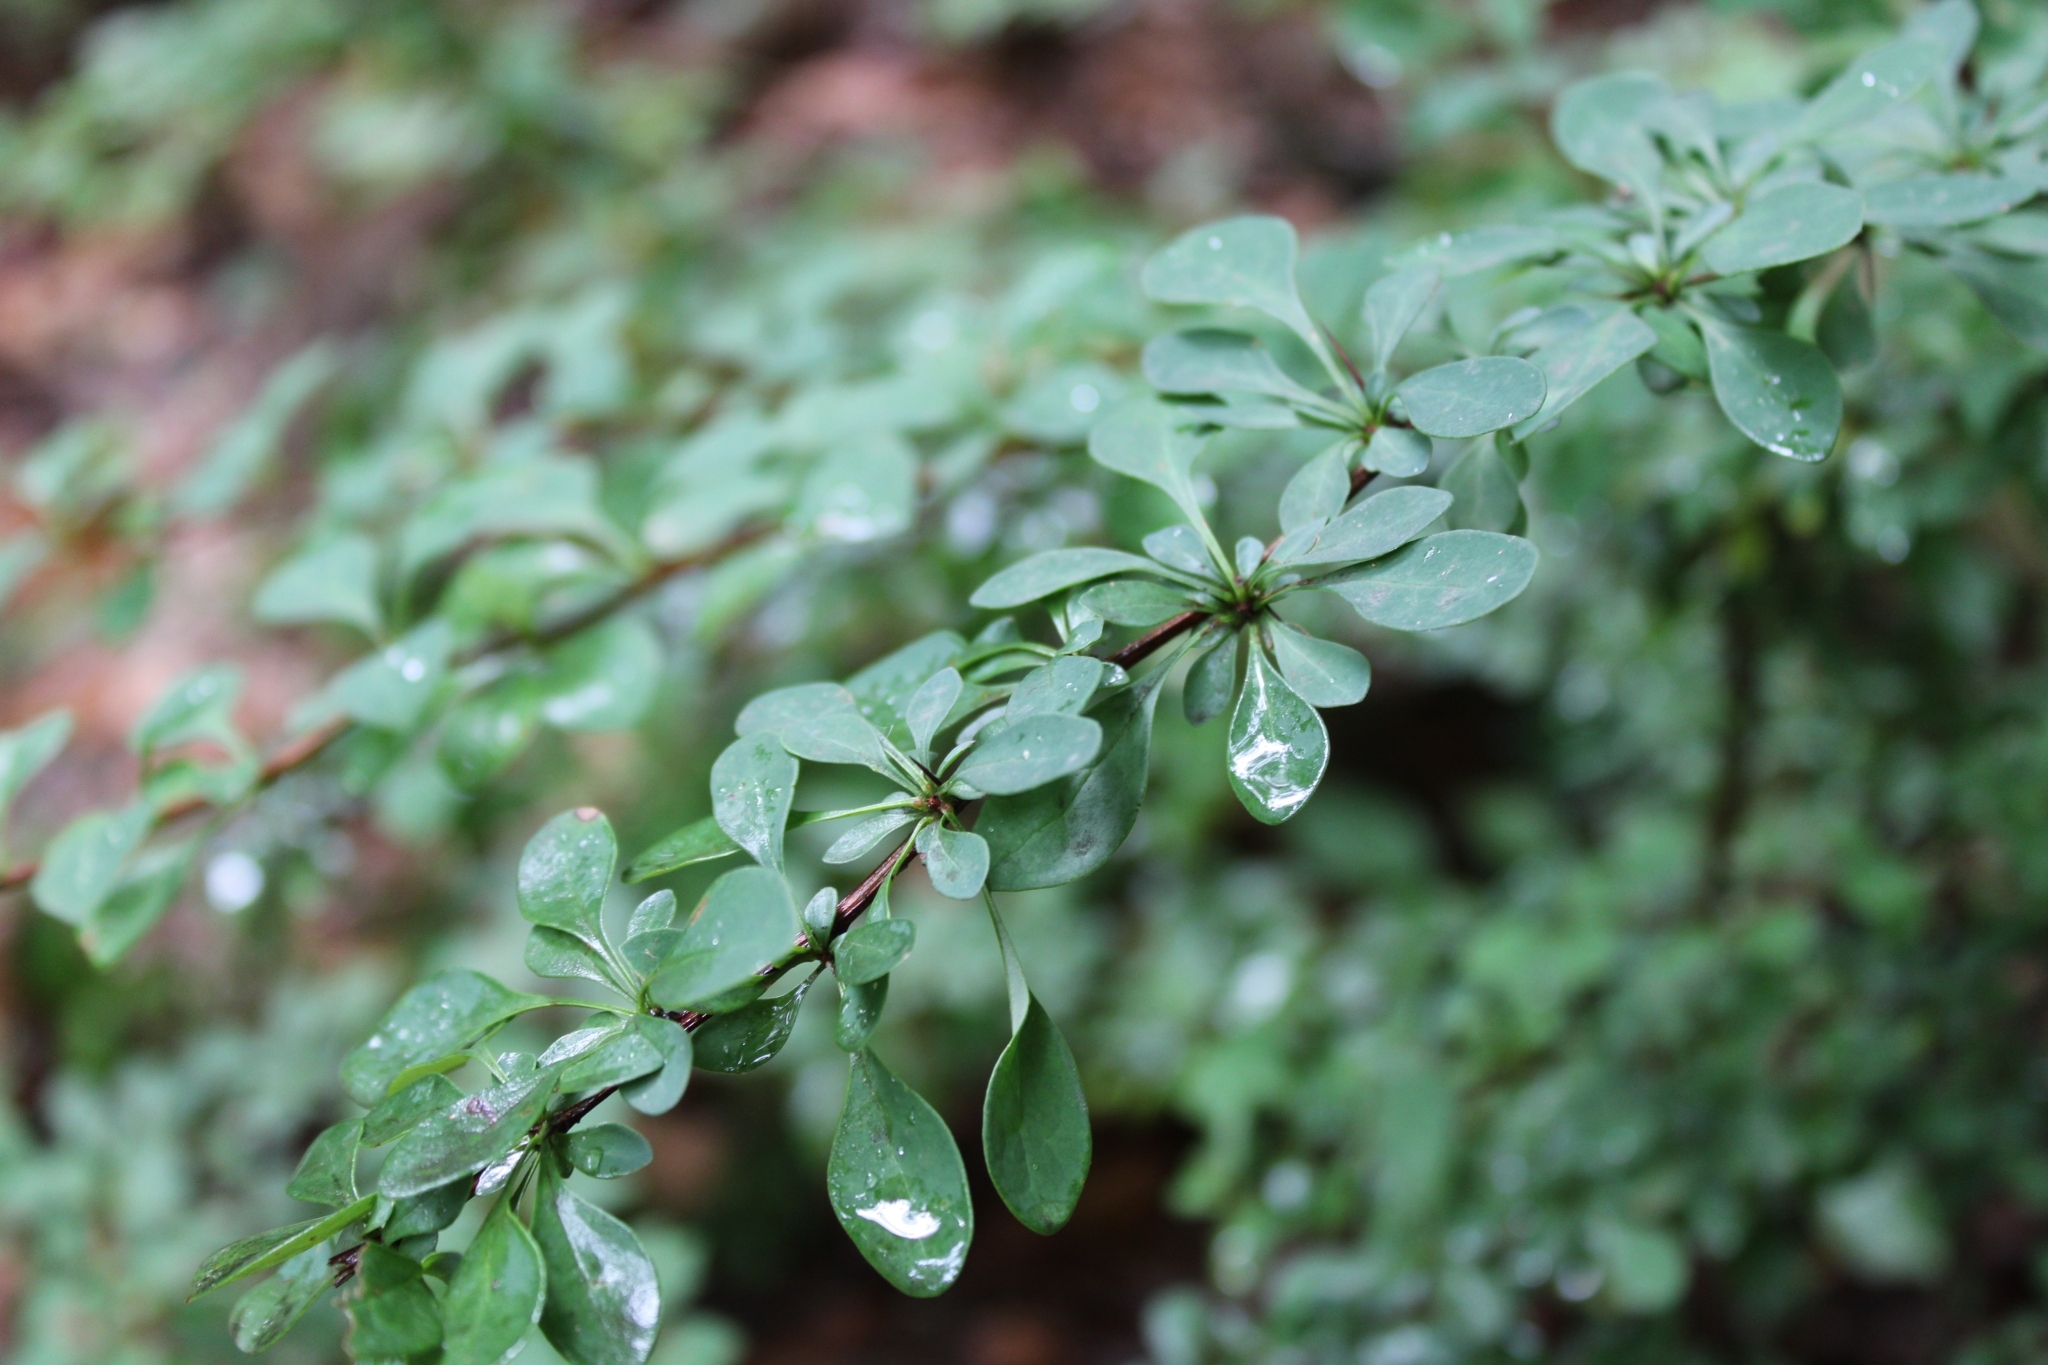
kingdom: Plantae
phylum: Tracheophyta
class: Magnoliopsida
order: Ranunculales
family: Berberidaceae
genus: Berberis
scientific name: Berberis thunbergii
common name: Japanese barberry
